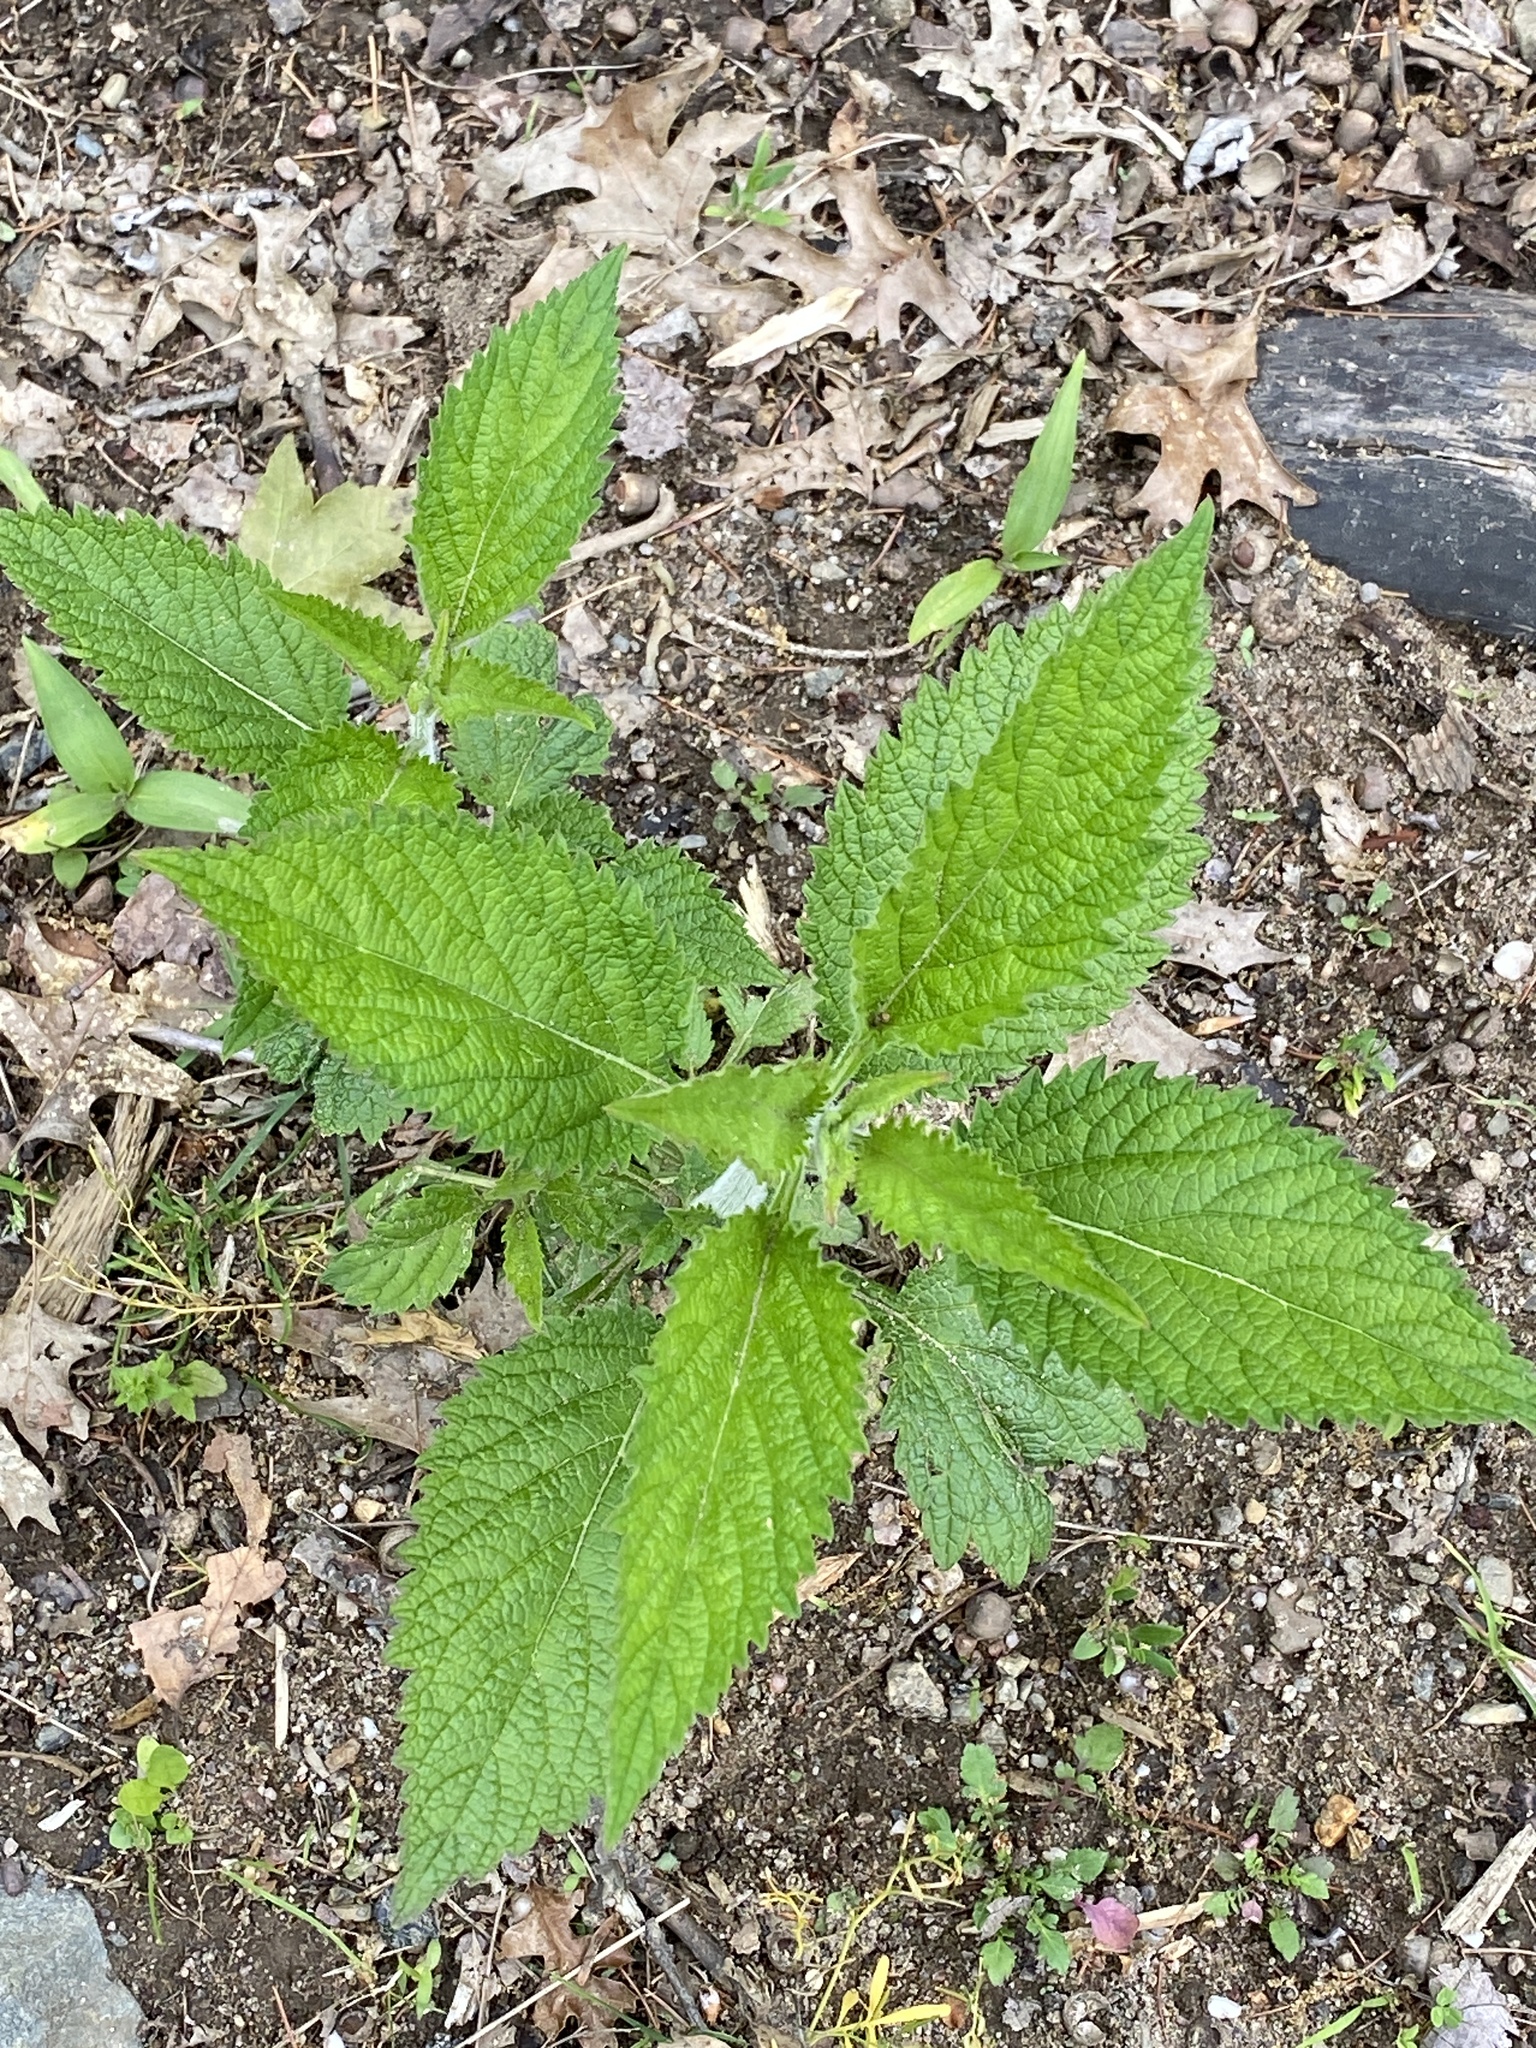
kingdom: Plantae
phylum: Tracheophyta
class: Magnoliopsida
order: Lamiales
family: Verbenaceae
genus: Verbena
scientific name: Verbena urticifolia
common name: Nettle-leaved vervain
